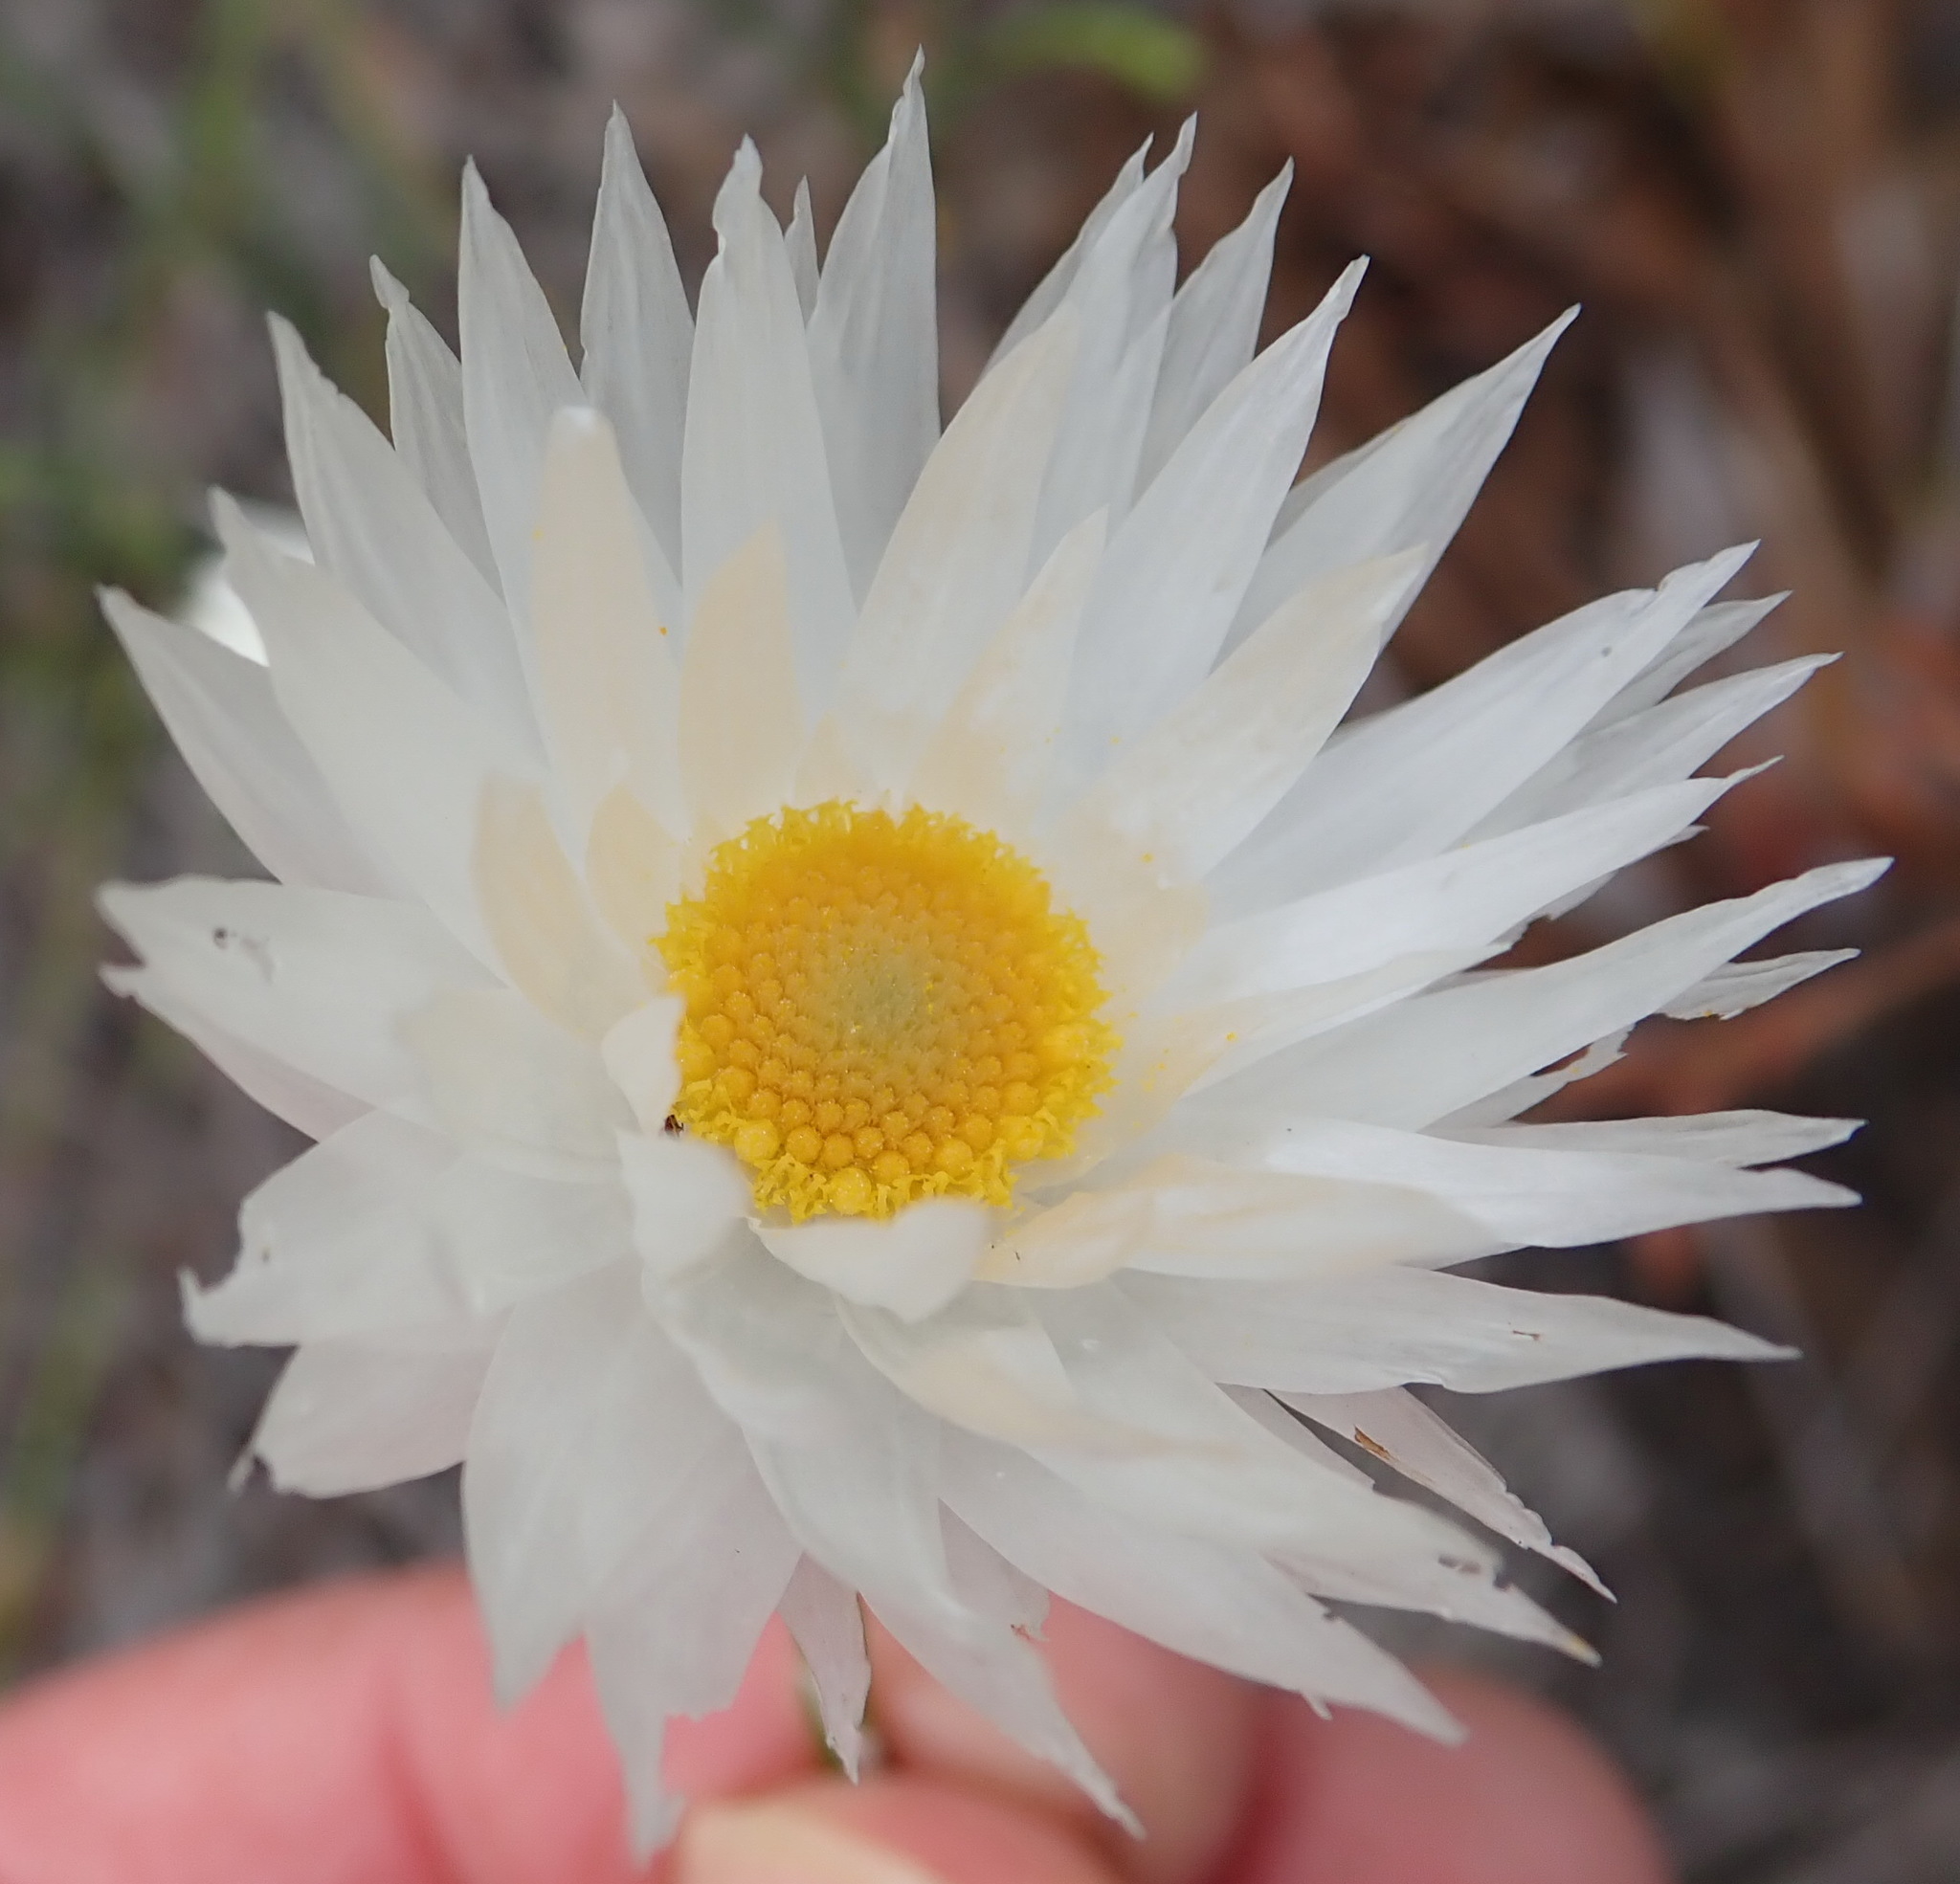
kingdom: Plantae
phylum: Tracheophyta
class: Magnoliopsida
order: Asterales
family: Asteraceae
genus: Edmondia
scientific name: Edmondia sesamoides
